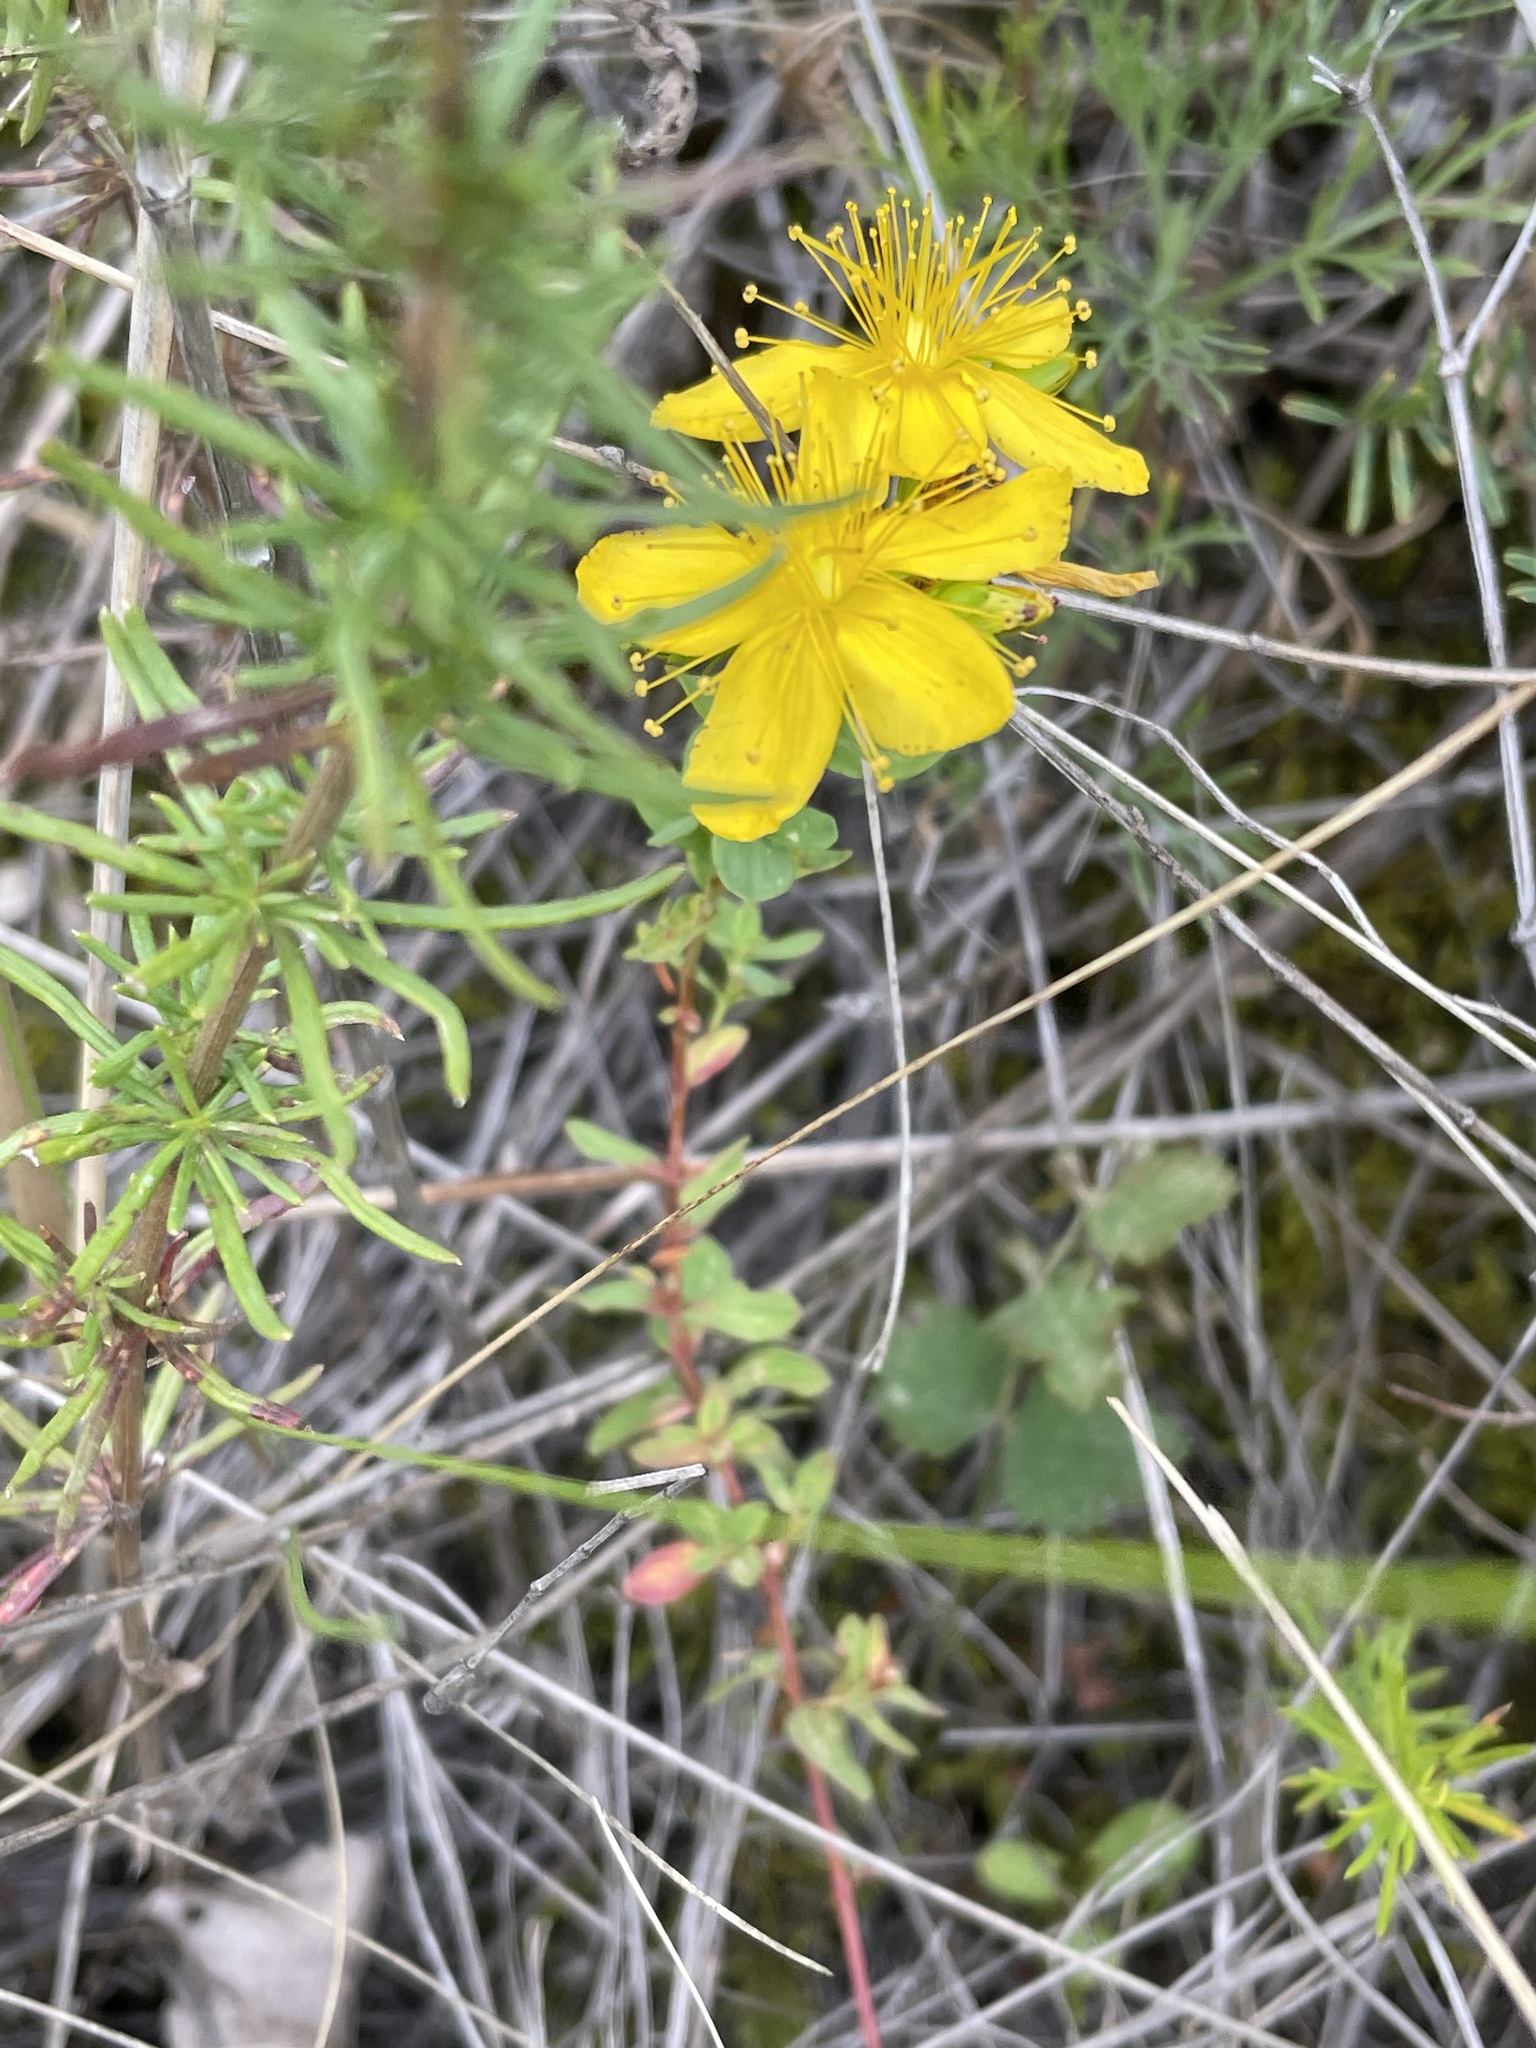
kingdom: Plantae
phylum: Tracheophyta
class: Magnoliopsida
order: Malpighiales
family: Hypericaceae
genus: Hypericum
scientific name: Hypericum perforatum
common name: Common st. johnswort
